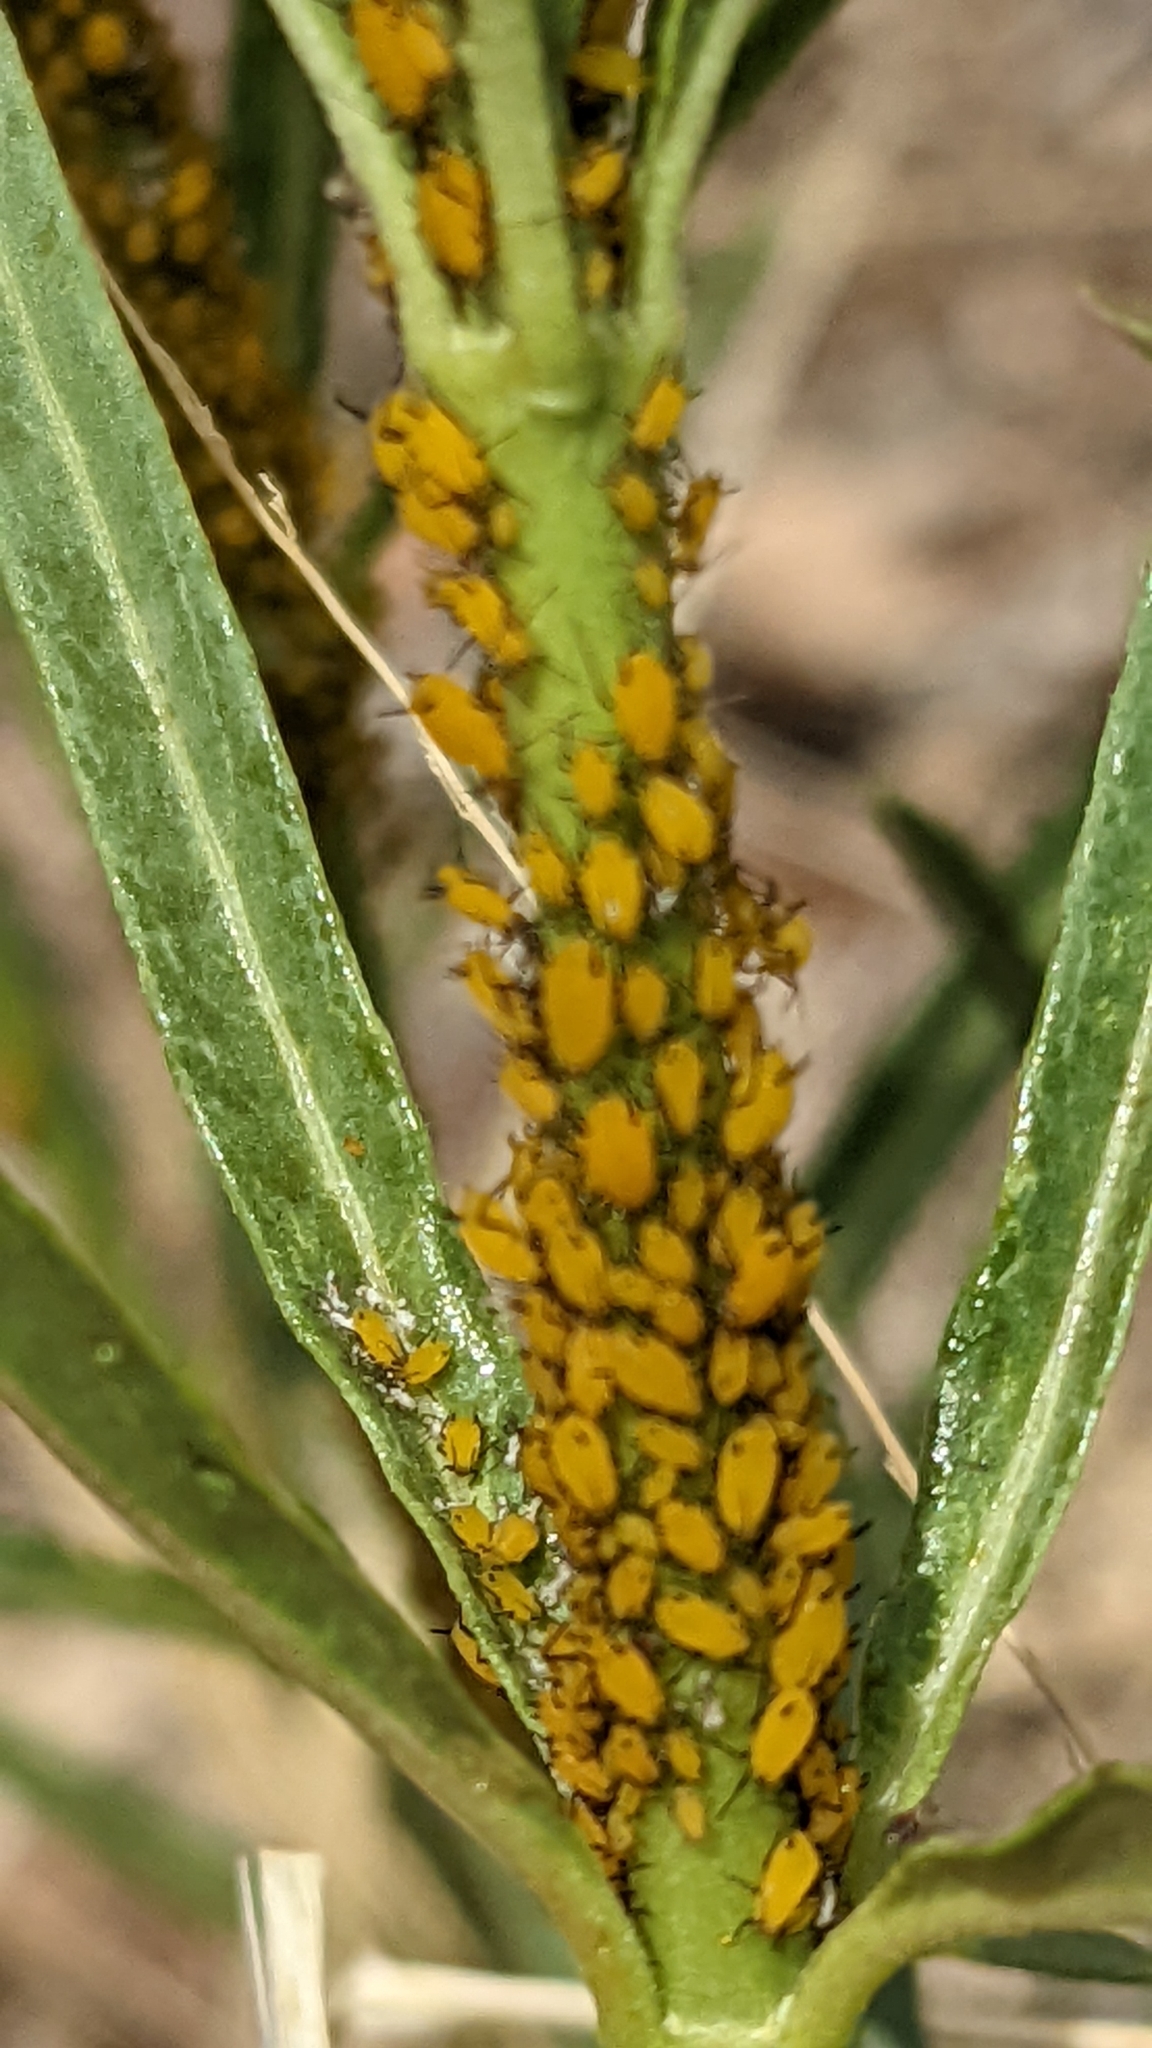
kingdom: Animalia
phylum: Arthropoda
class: Insecta
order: Hemiptera
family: Aphididae
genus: Aphis
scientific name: Aphis nerii
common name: Oleander aphid
